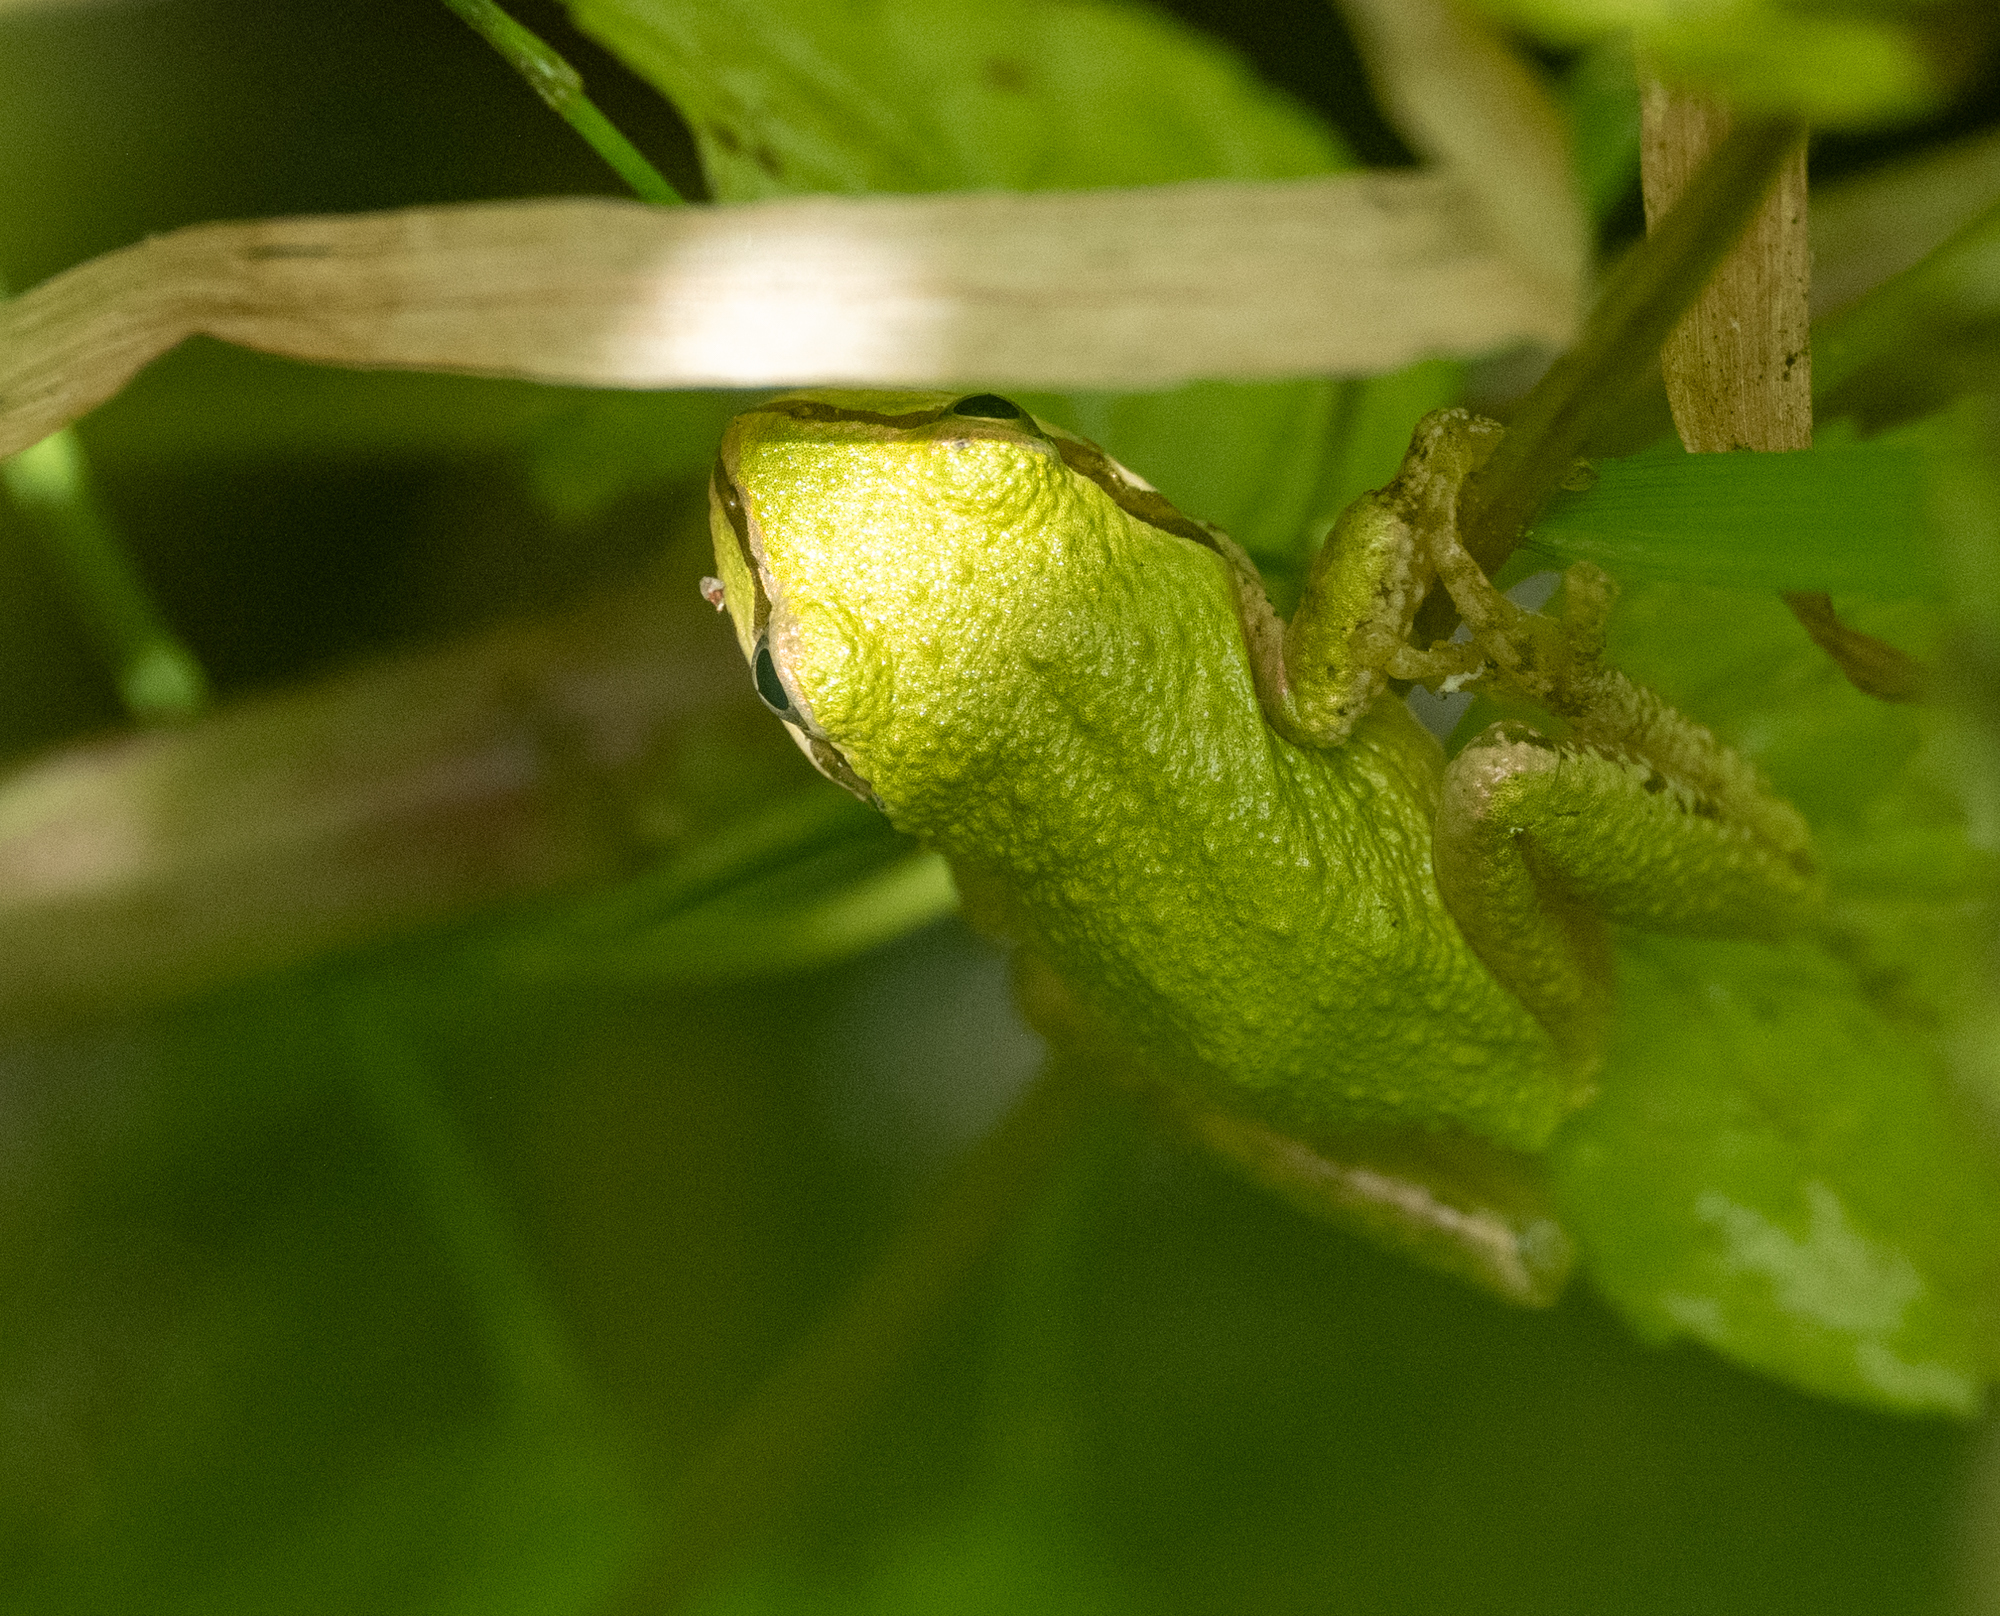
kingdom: Animalia
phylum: Chordata
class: Amphibia
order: Anura
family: Hylidae
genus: Pseudacris
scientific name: Pseudacris regilla
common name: Pacific chorus frog
